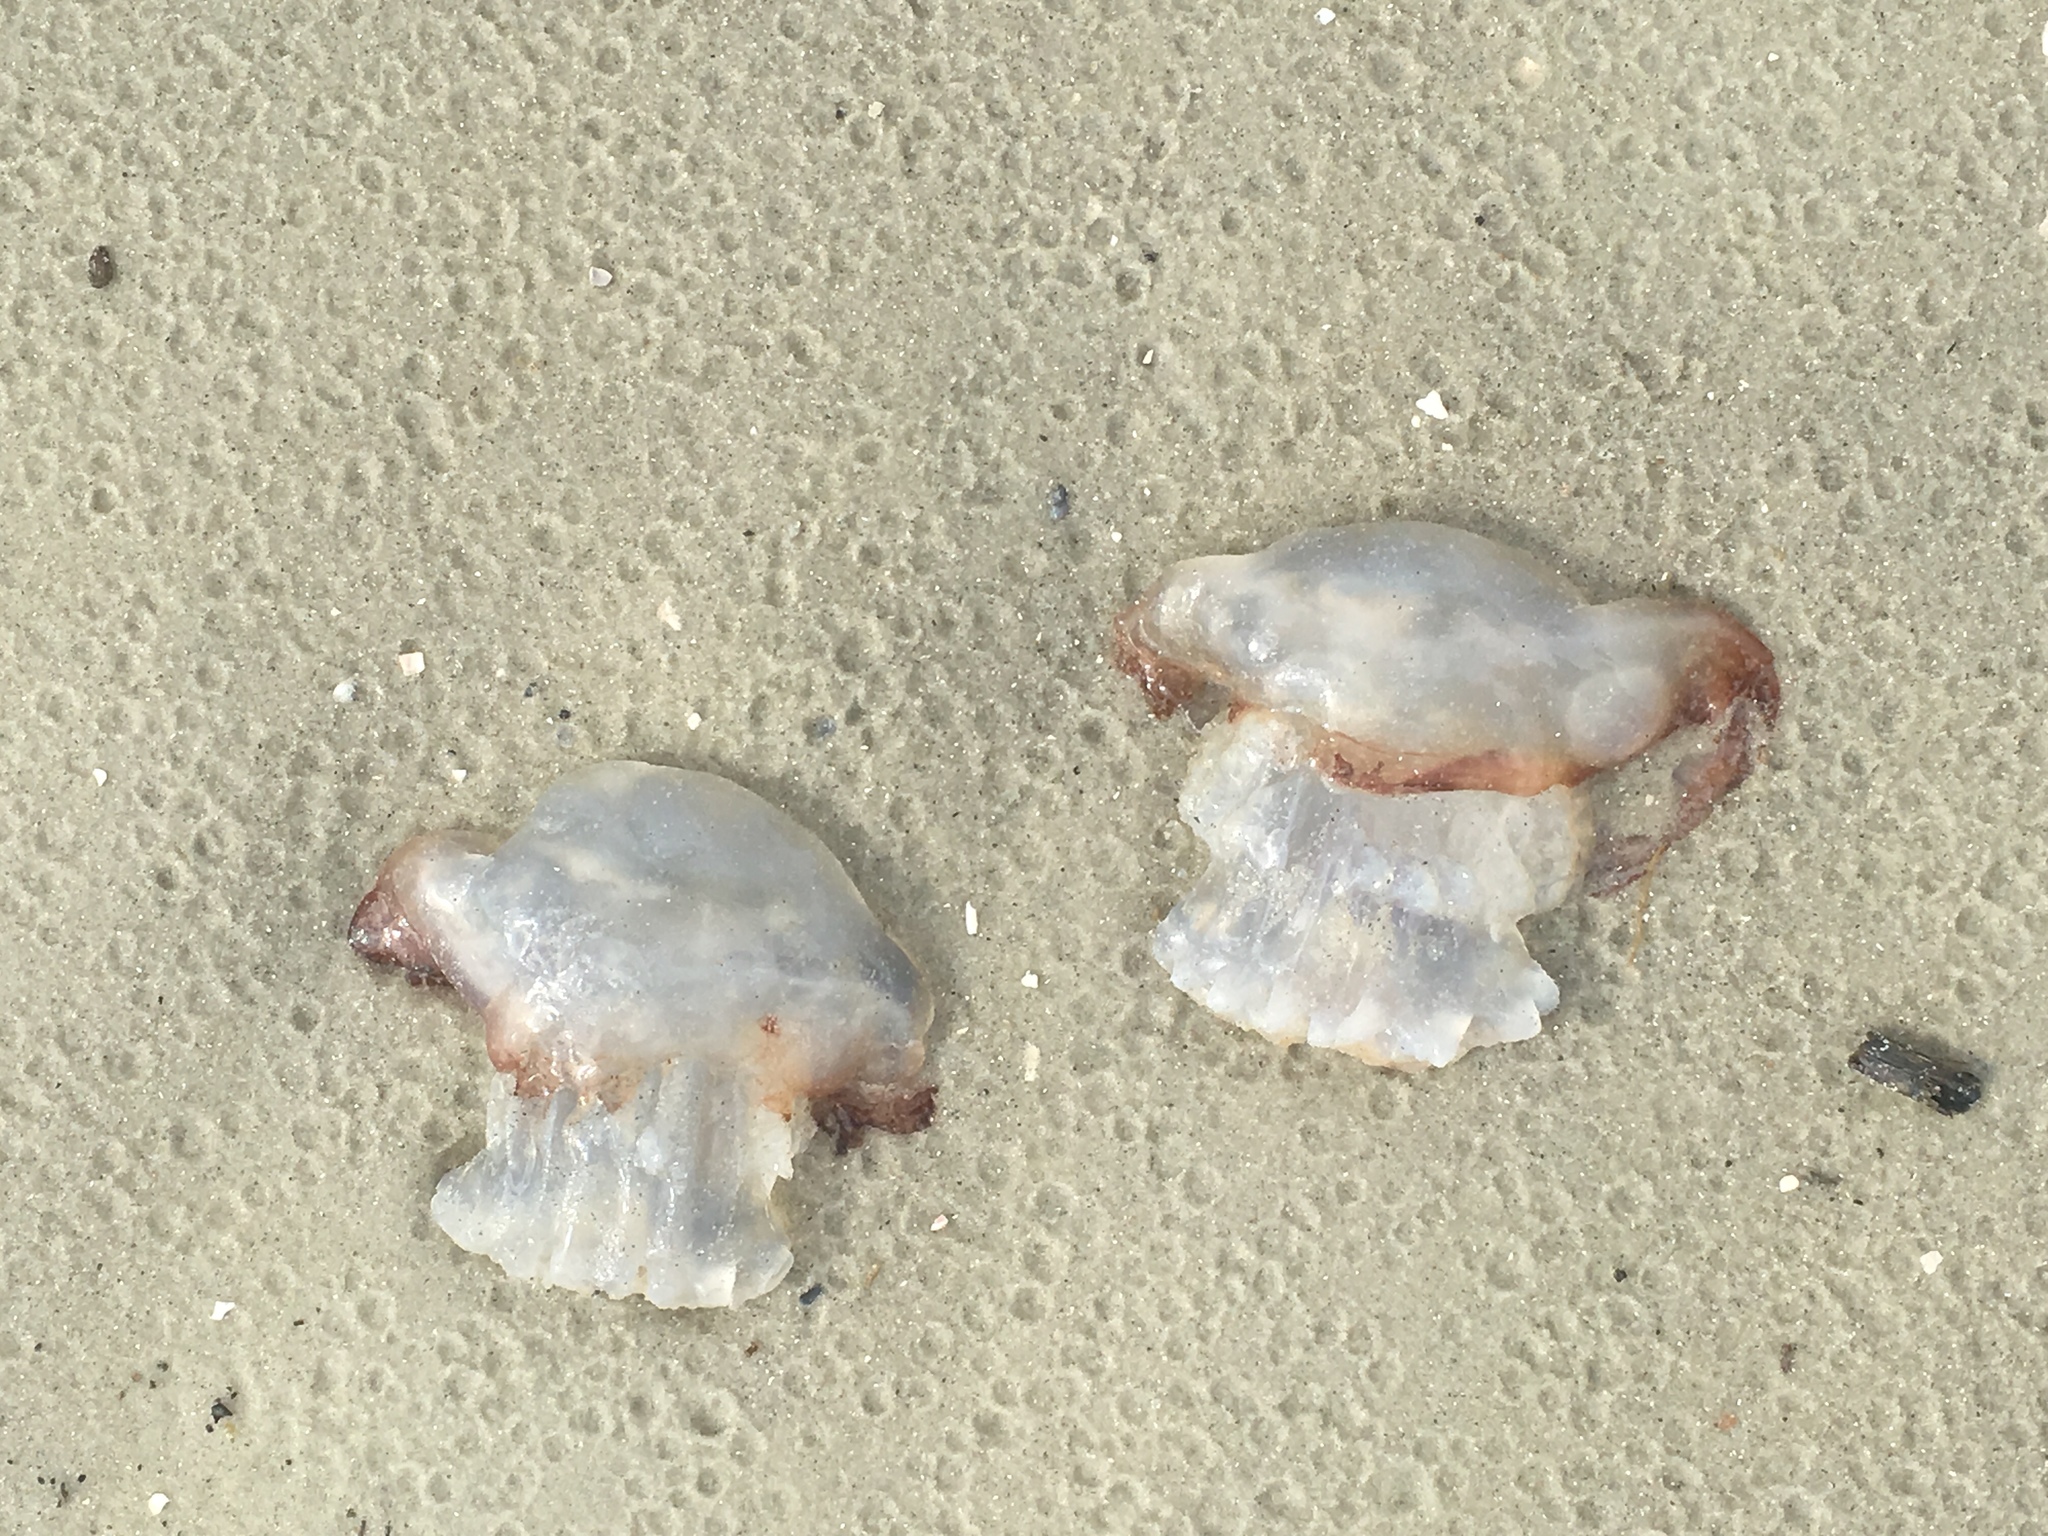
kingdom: Animalia
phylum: Cnidaria
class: Scyphozoa
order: Rhizostomeae
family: Stomolophidae
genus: Stomolophus
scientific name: Stomolophus meleagris
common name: Cabbagehead
